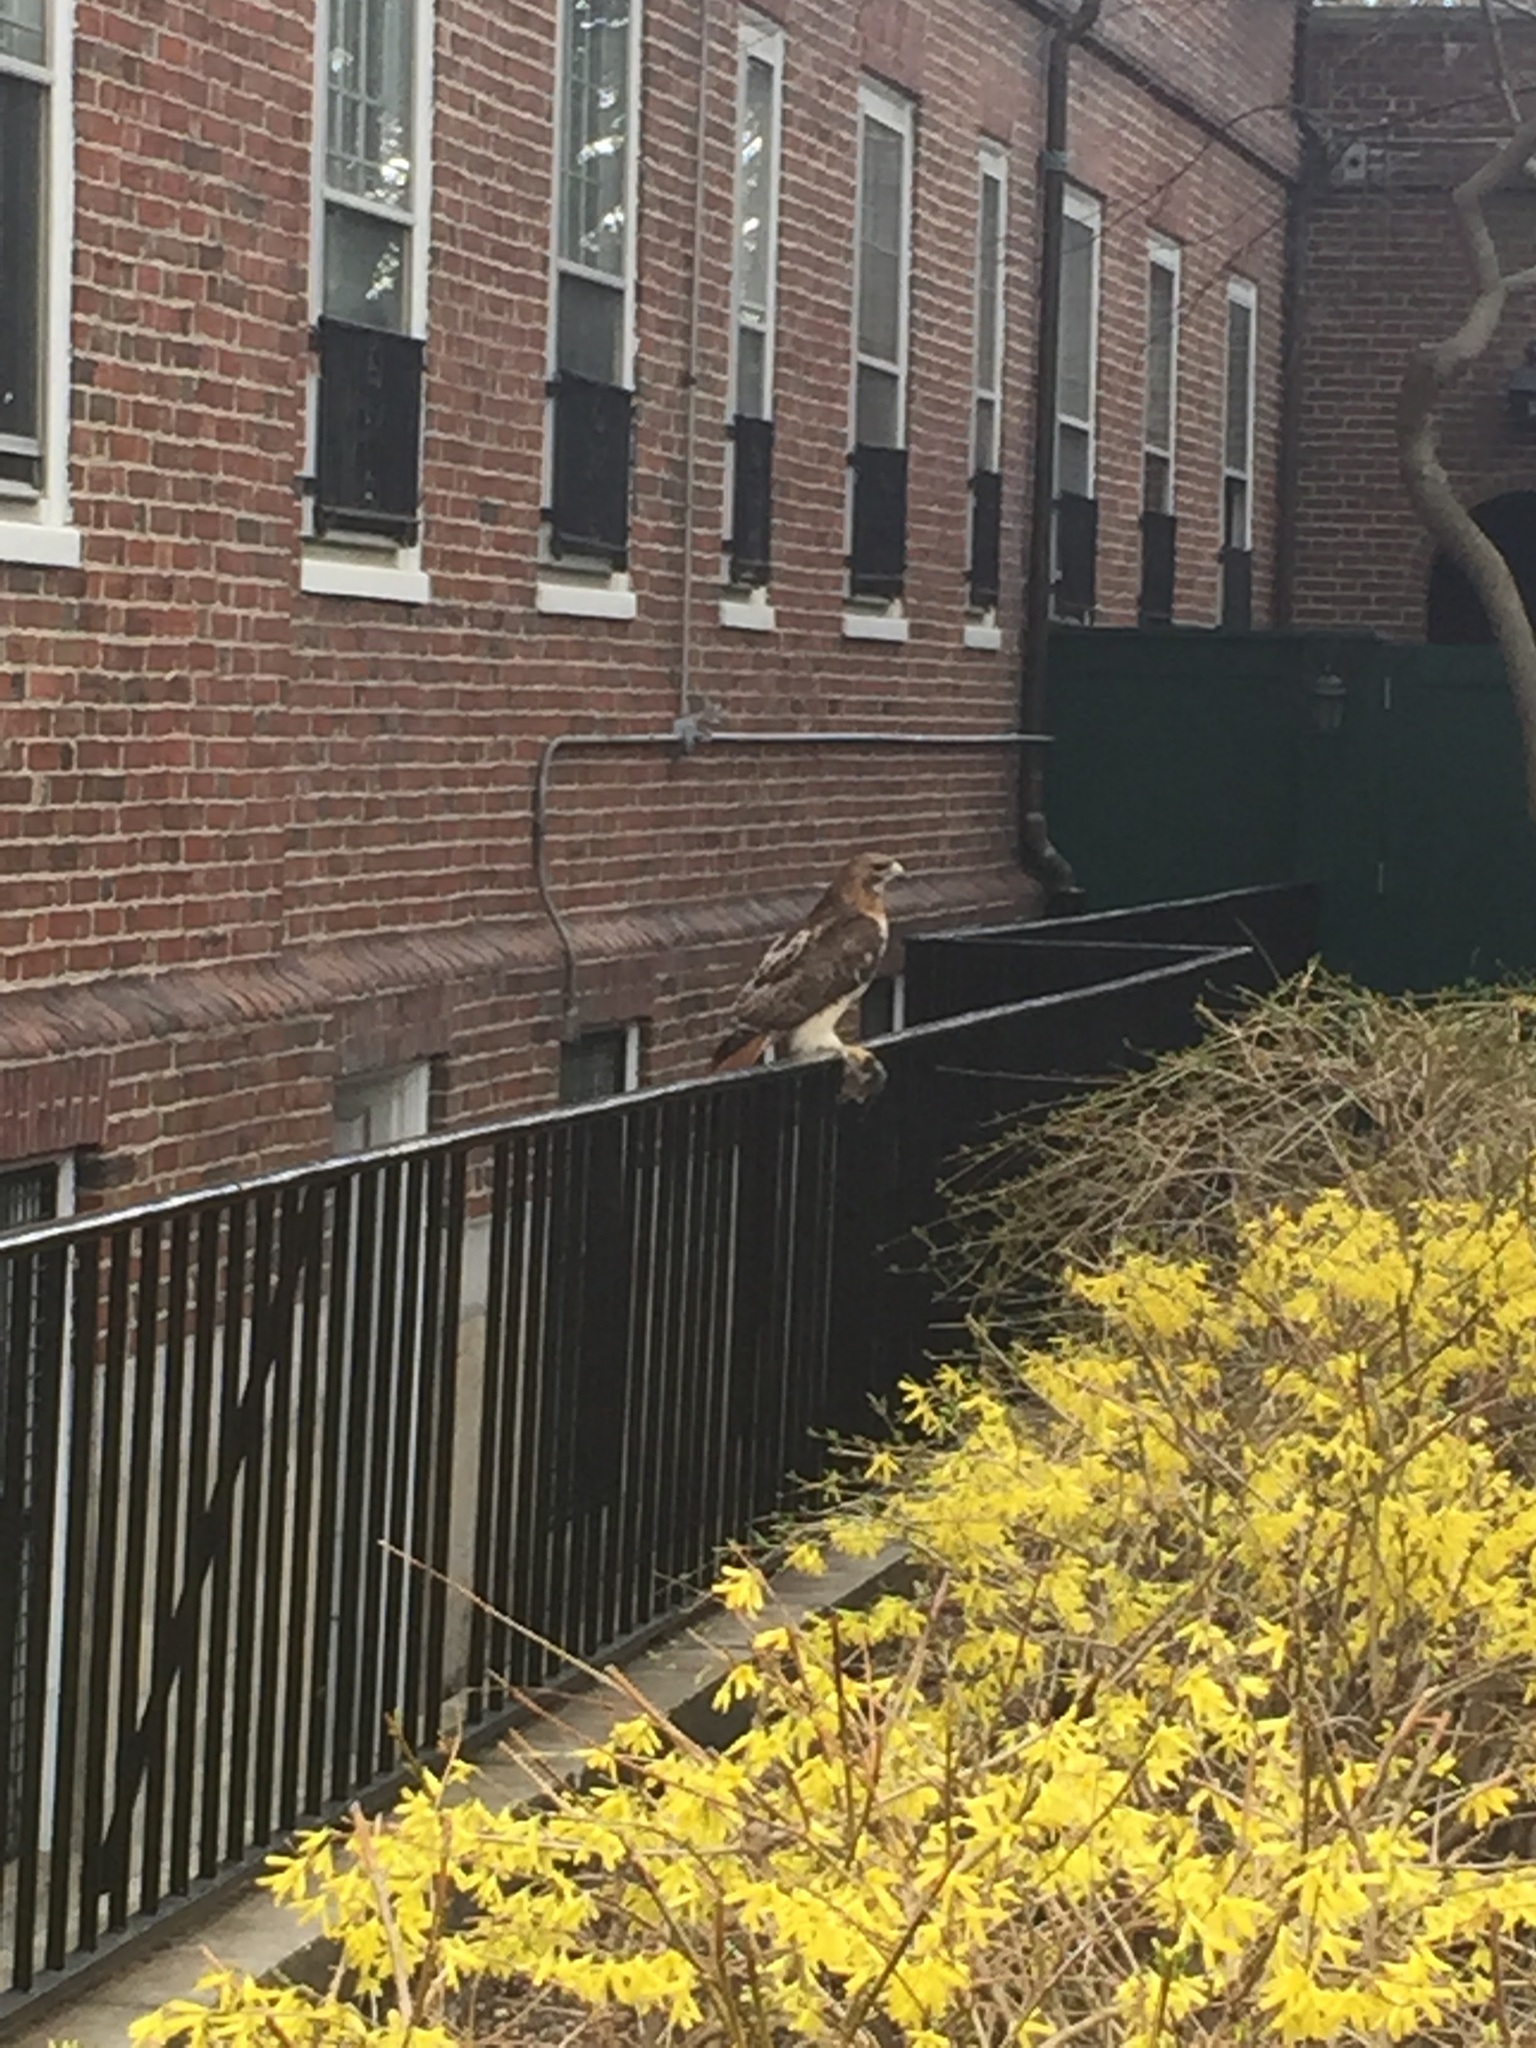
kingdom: Animalia
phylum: Chordata
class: Aves
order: Accipitriformes
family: Accipitridae
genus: Buteo
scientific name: Buteo jamaicensis
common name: Red-tailed hawk
